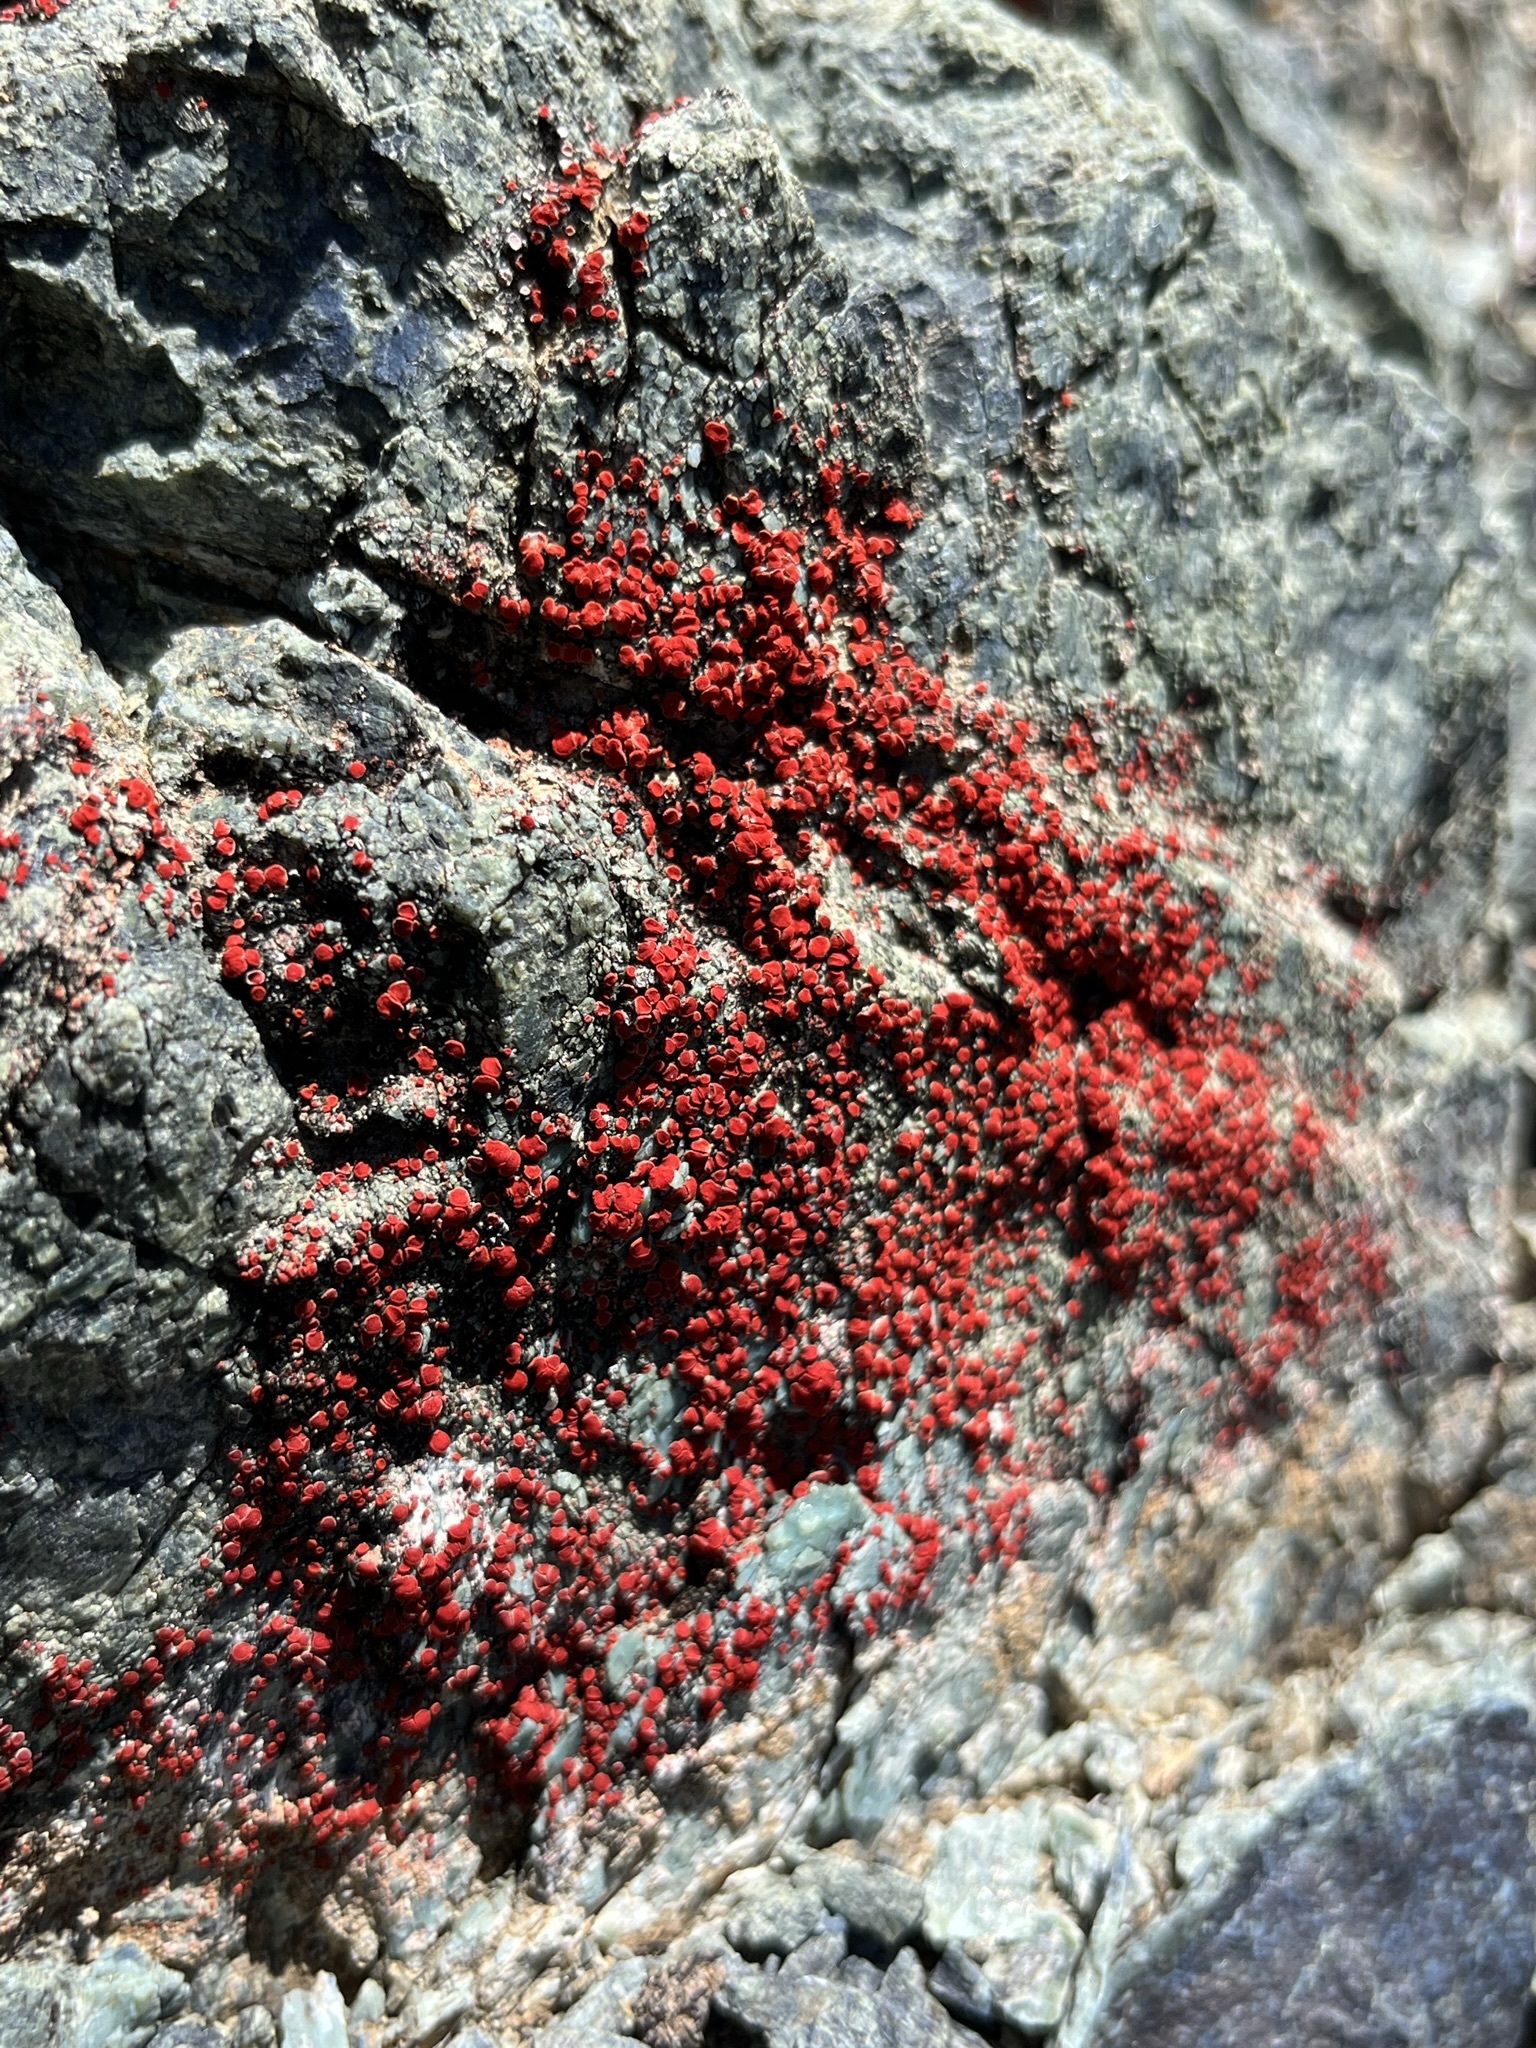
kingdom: Fungi
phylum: Ascomycota
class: Lecanoromycetes
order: Teloschistales
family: Teloschistaceae
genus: Tomnashia
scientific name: Tomnashia luteominia
